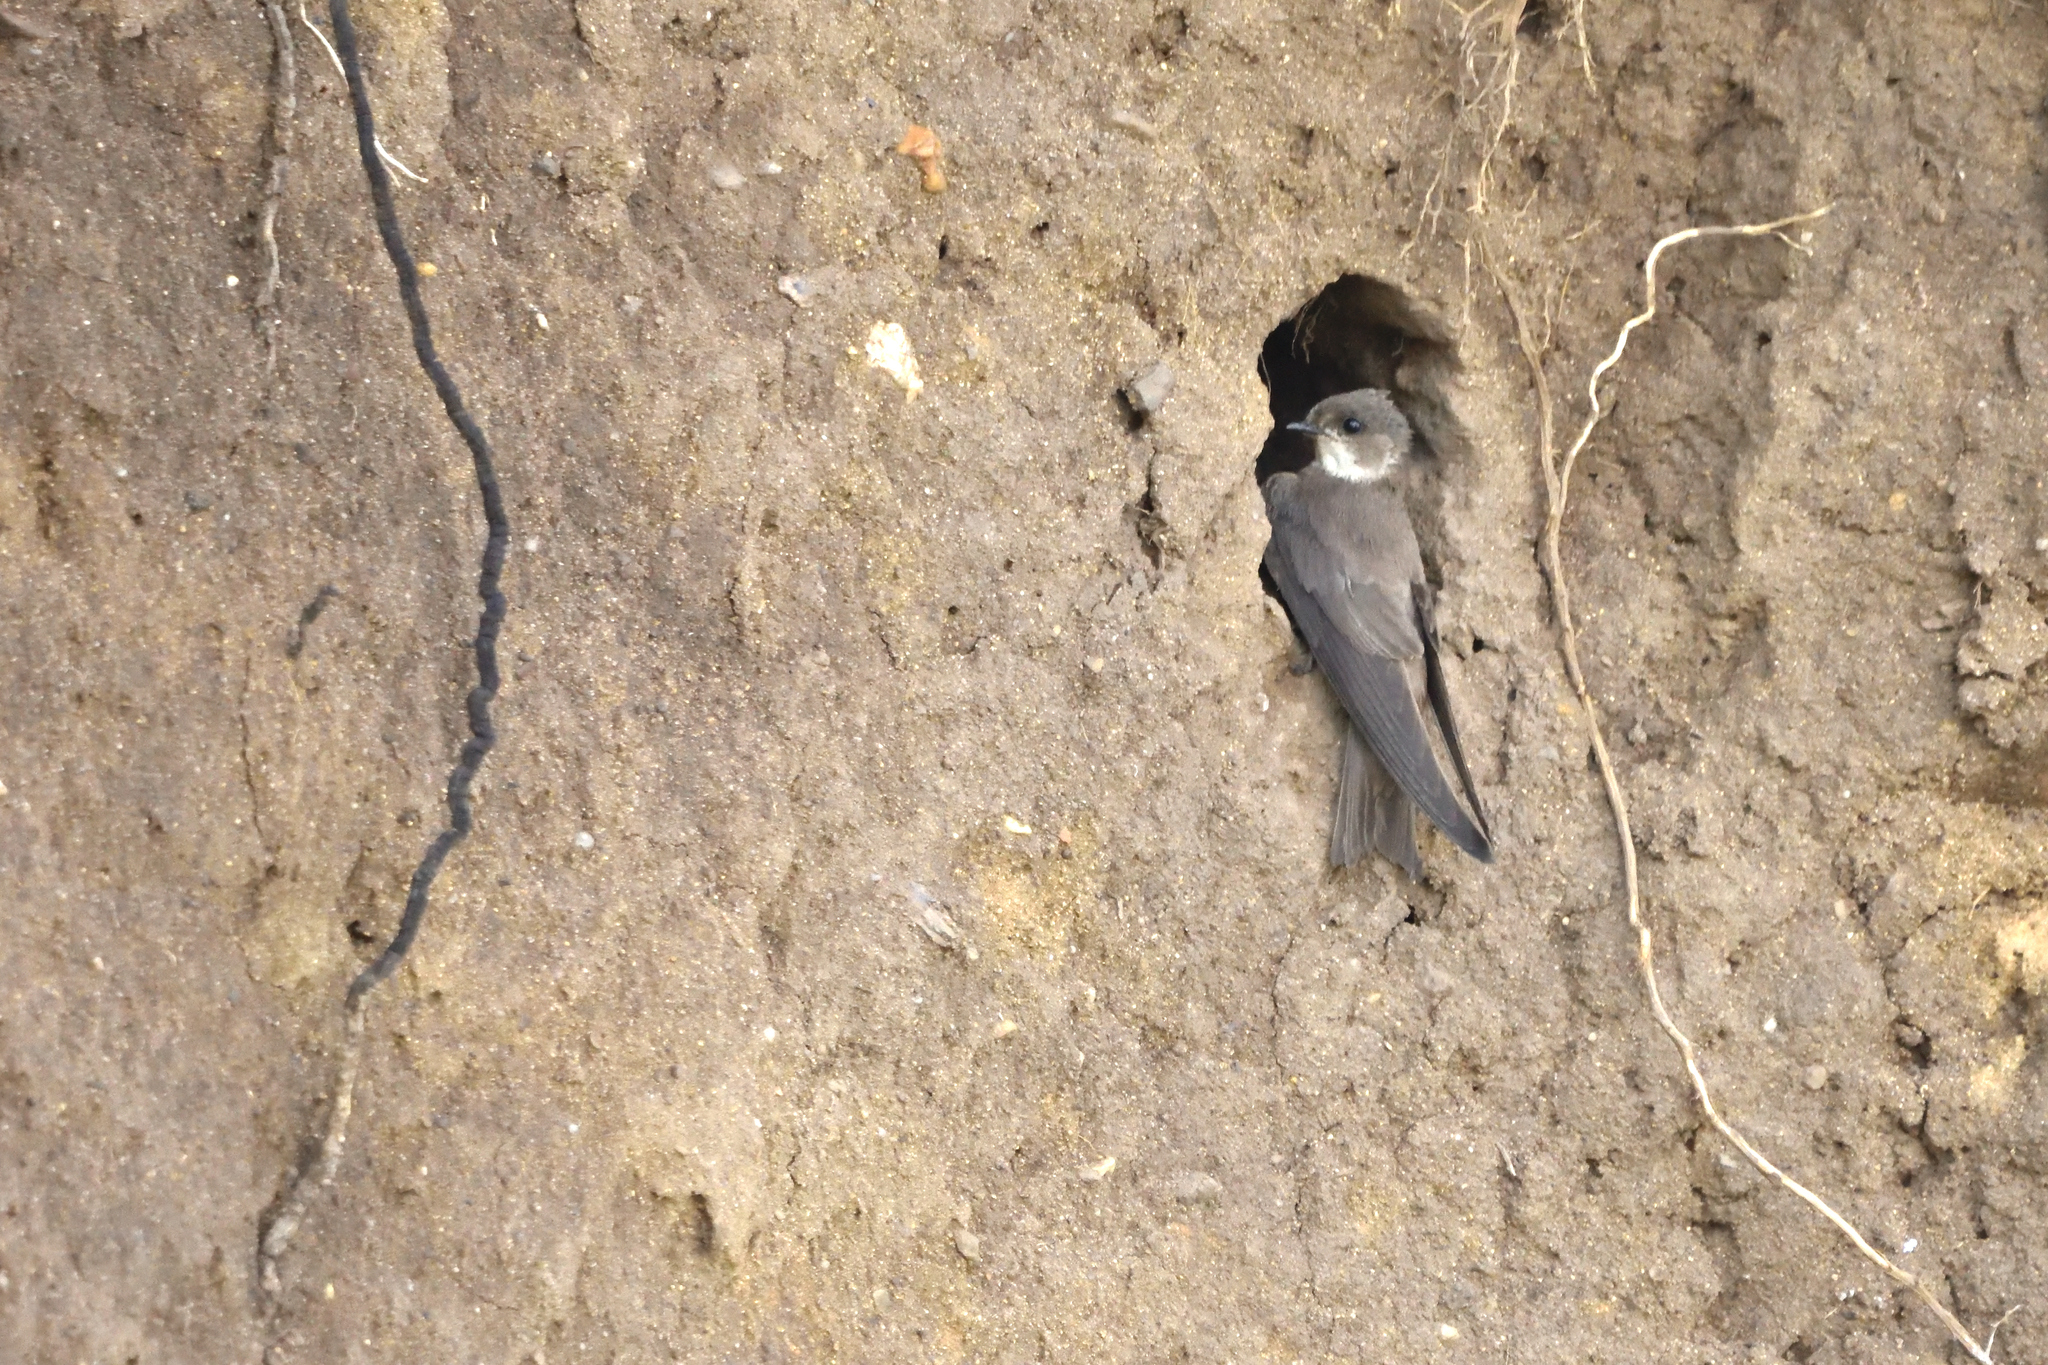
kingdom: Animalia
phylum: Chordata
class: Aves
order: Passeriformes
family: Hirundinidae
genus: Riparia
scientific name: Riparia riparia
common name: Sand martin
